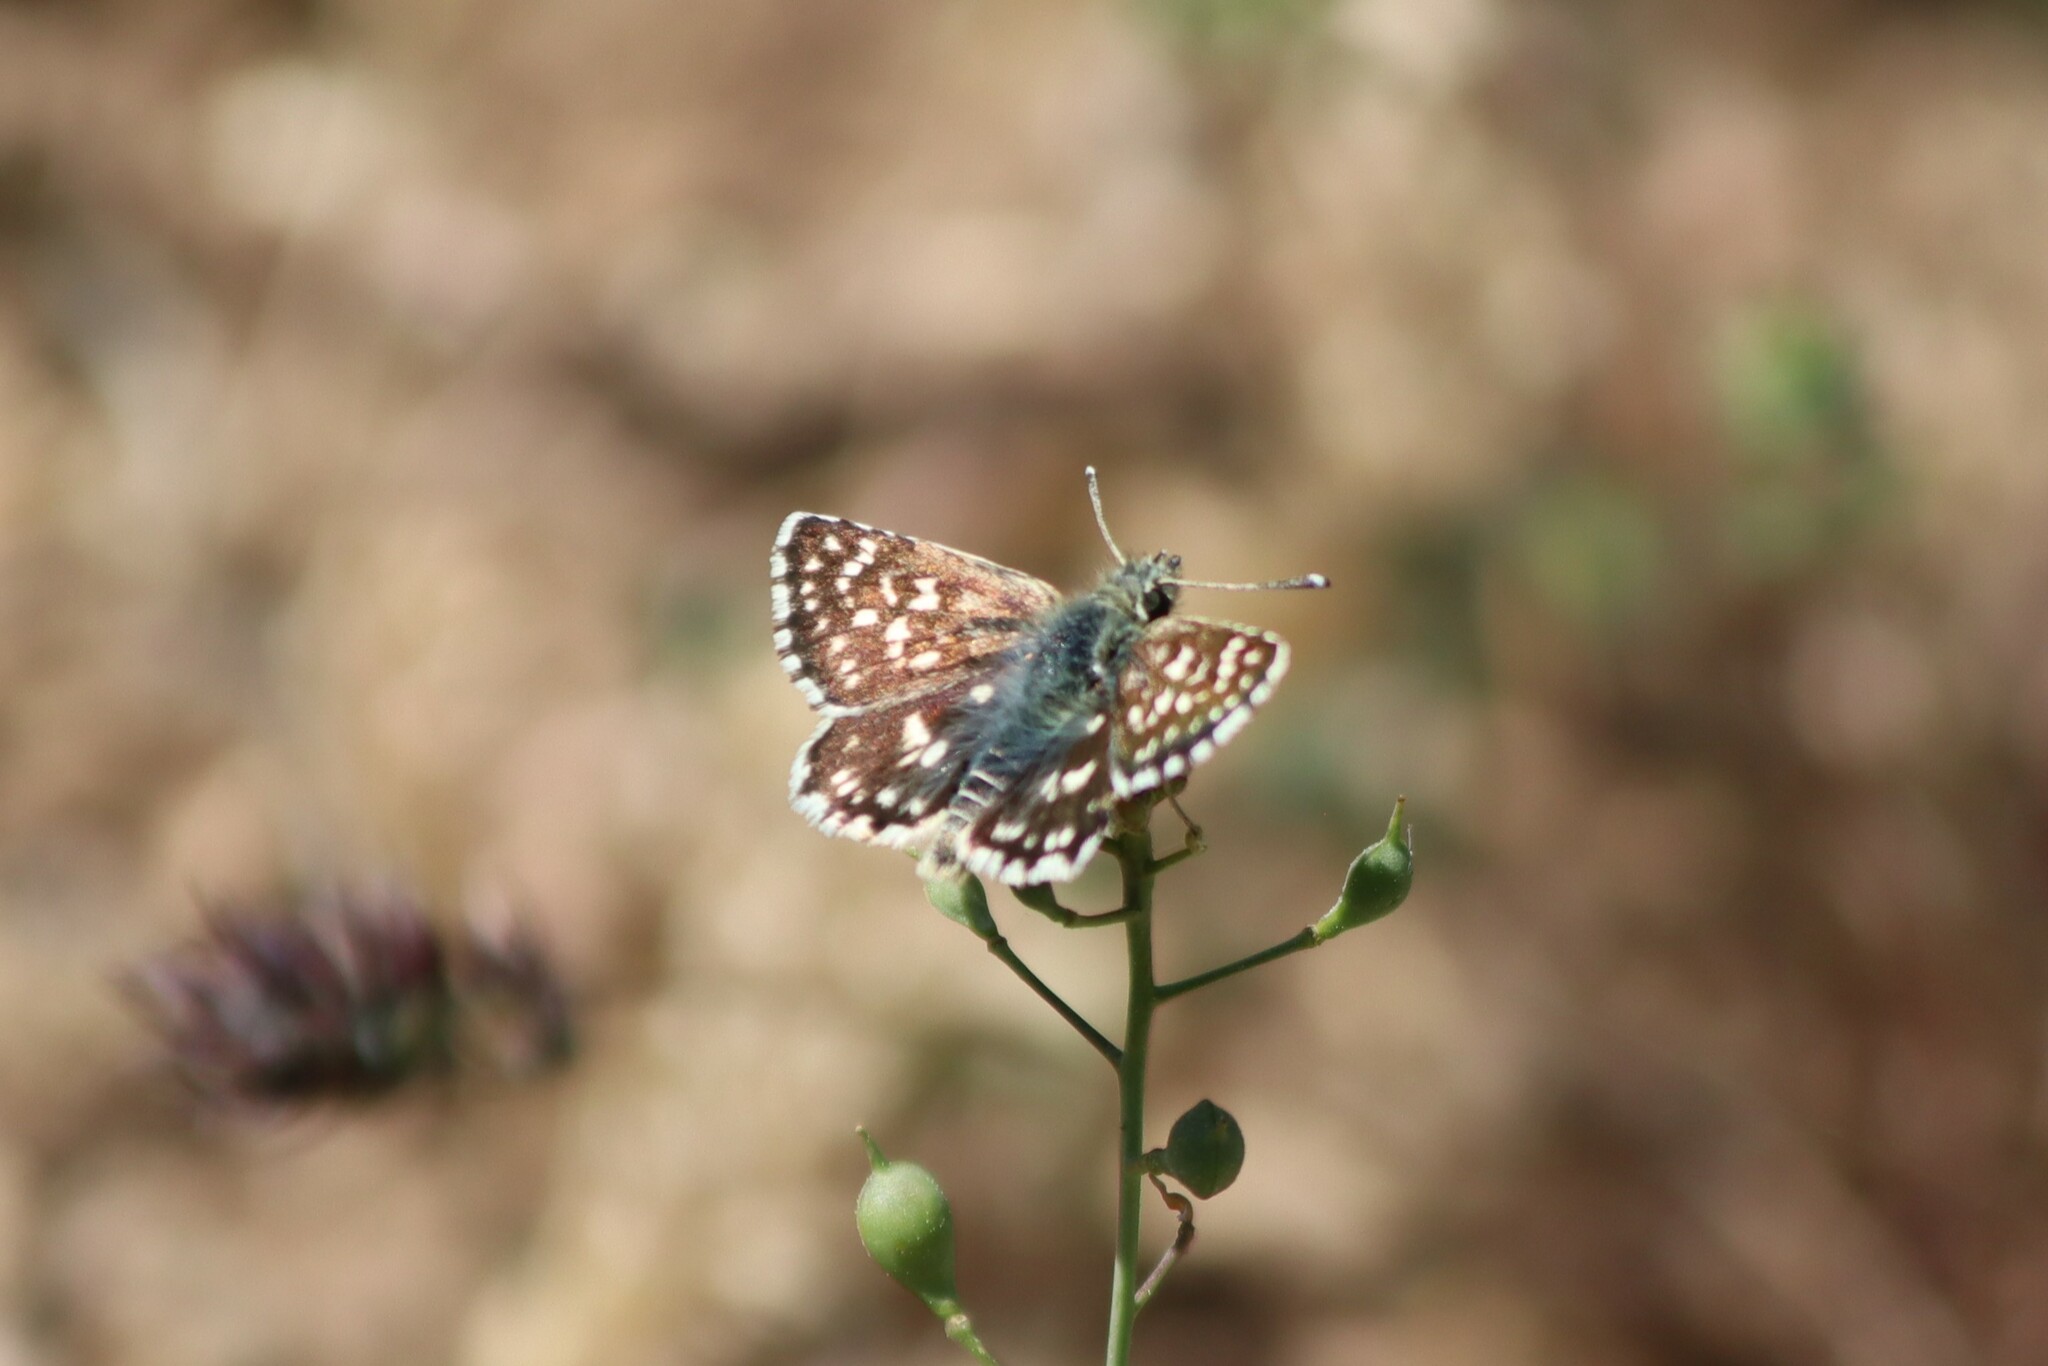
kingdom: Animalia
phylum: Arthropoda
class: Insecta
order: Lepidoptera
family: Hesperiidae
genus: Spialia
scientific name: Spialia sertorius
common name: Red underwing skipper
